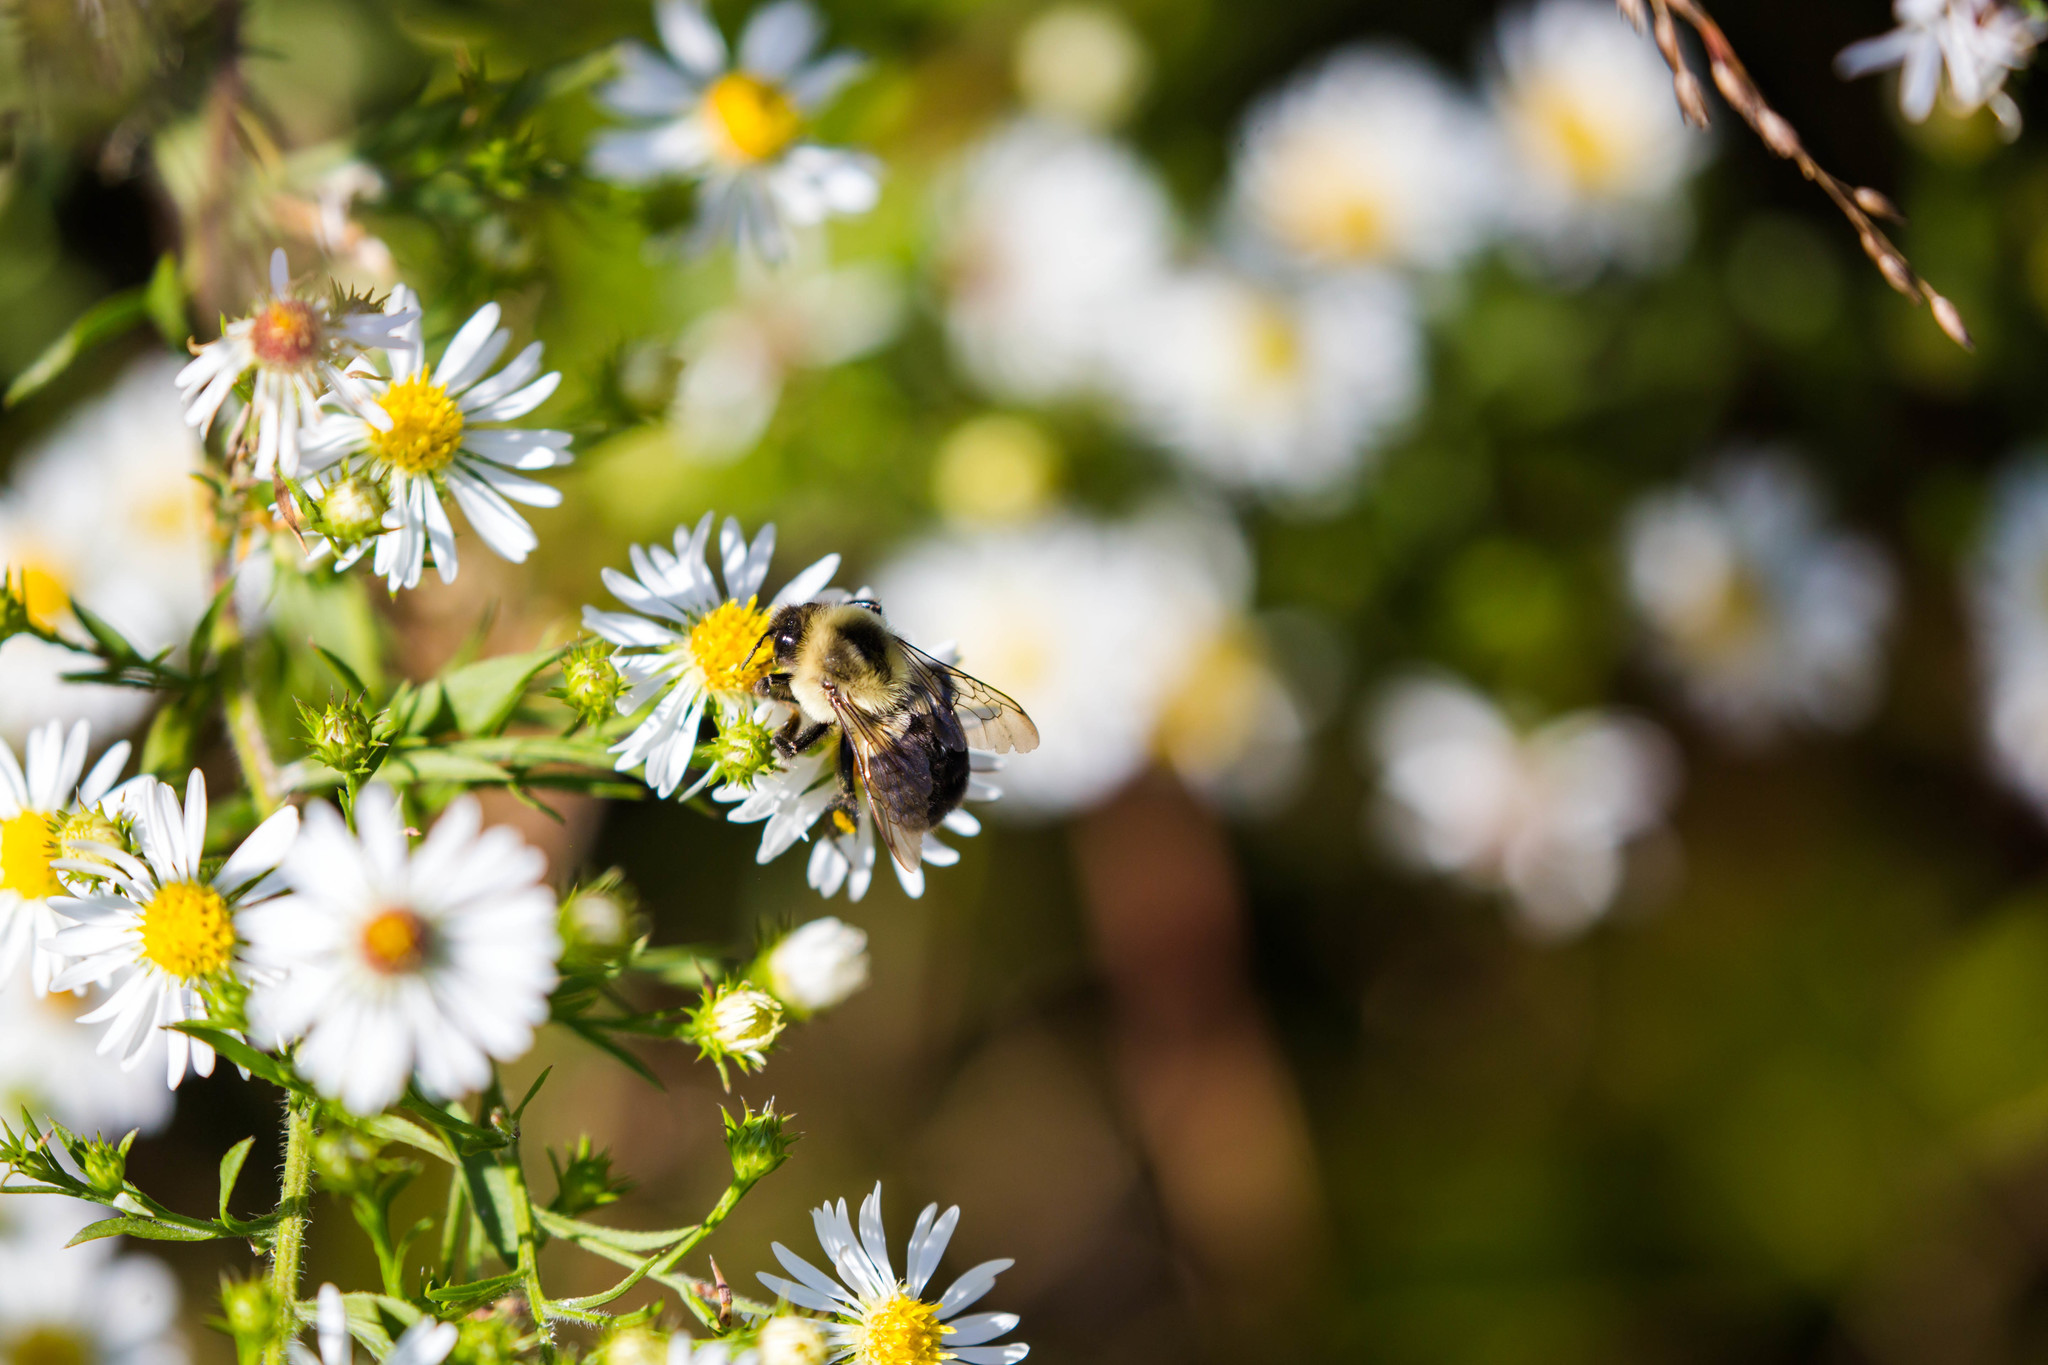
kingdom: Animalia
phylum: Arthropoda
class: Insecta
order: Hymenoptera
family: Apidae
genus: Bombus
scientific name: Bombus impatiens
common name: Common eastern bumble bee
